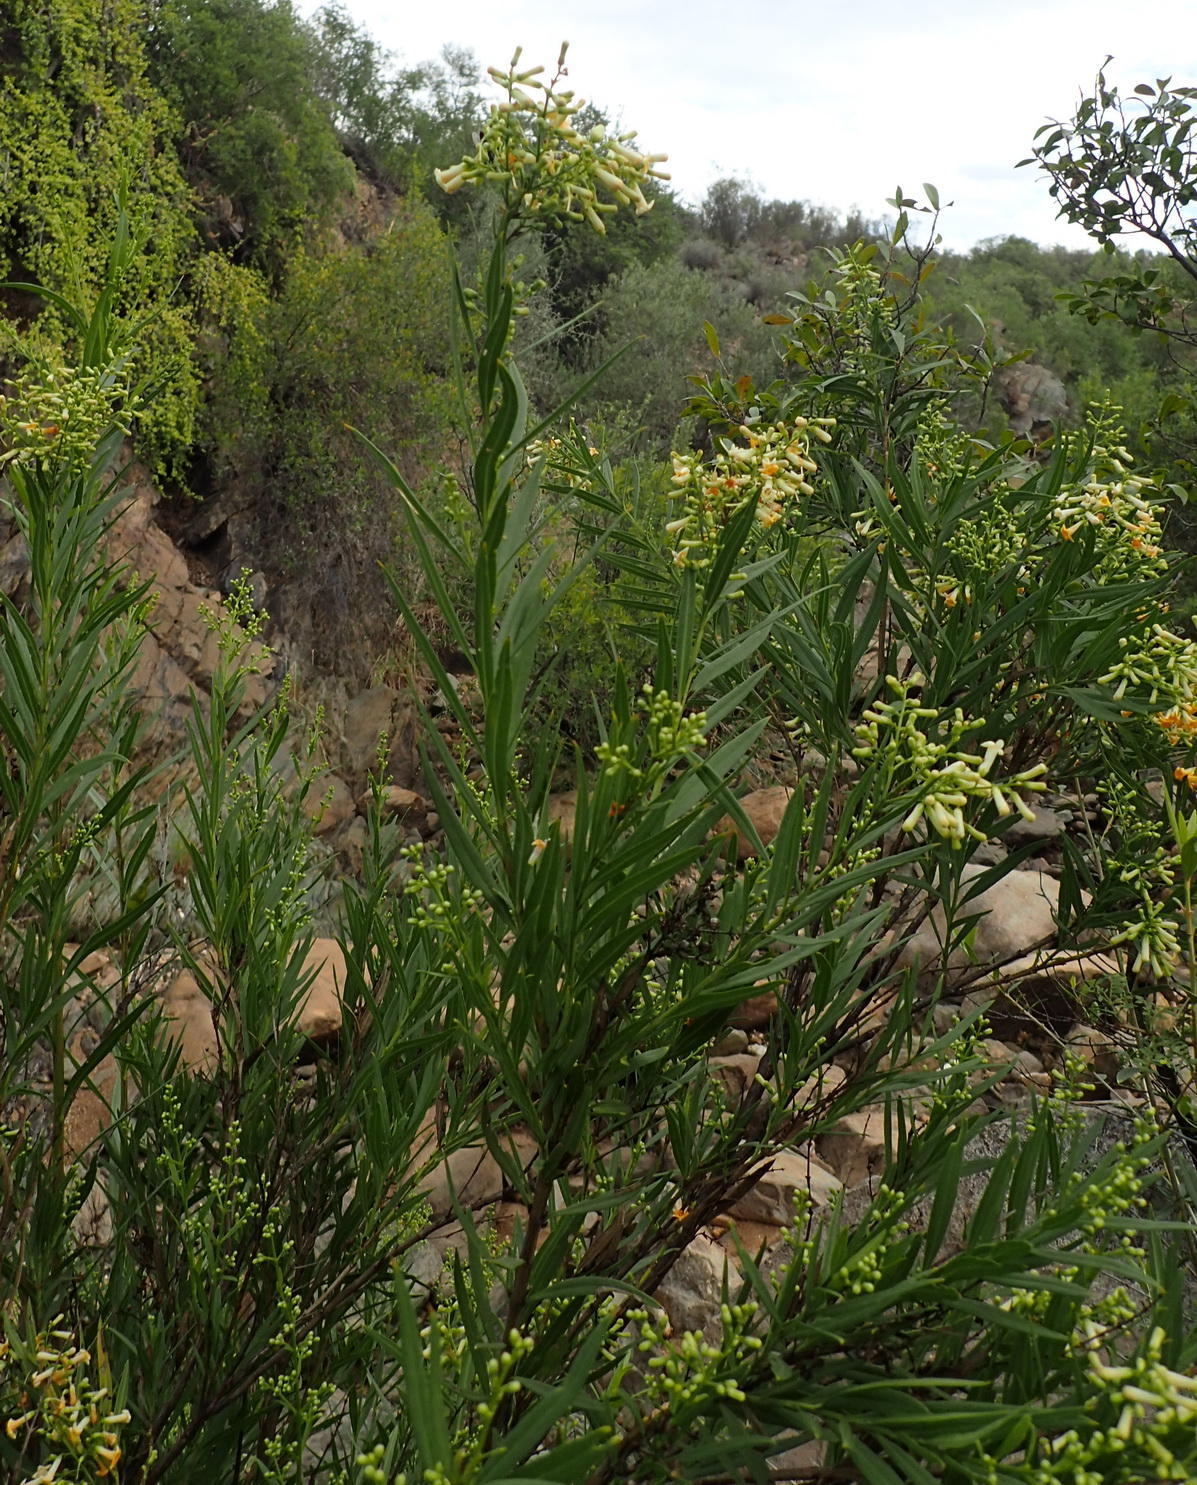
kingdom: Plantae
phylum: Tracheophyta
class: Magnoliopsida
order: Lamiales
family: Scrophulariaceae
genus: Freylinia
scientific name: Freylinia lanceolata
